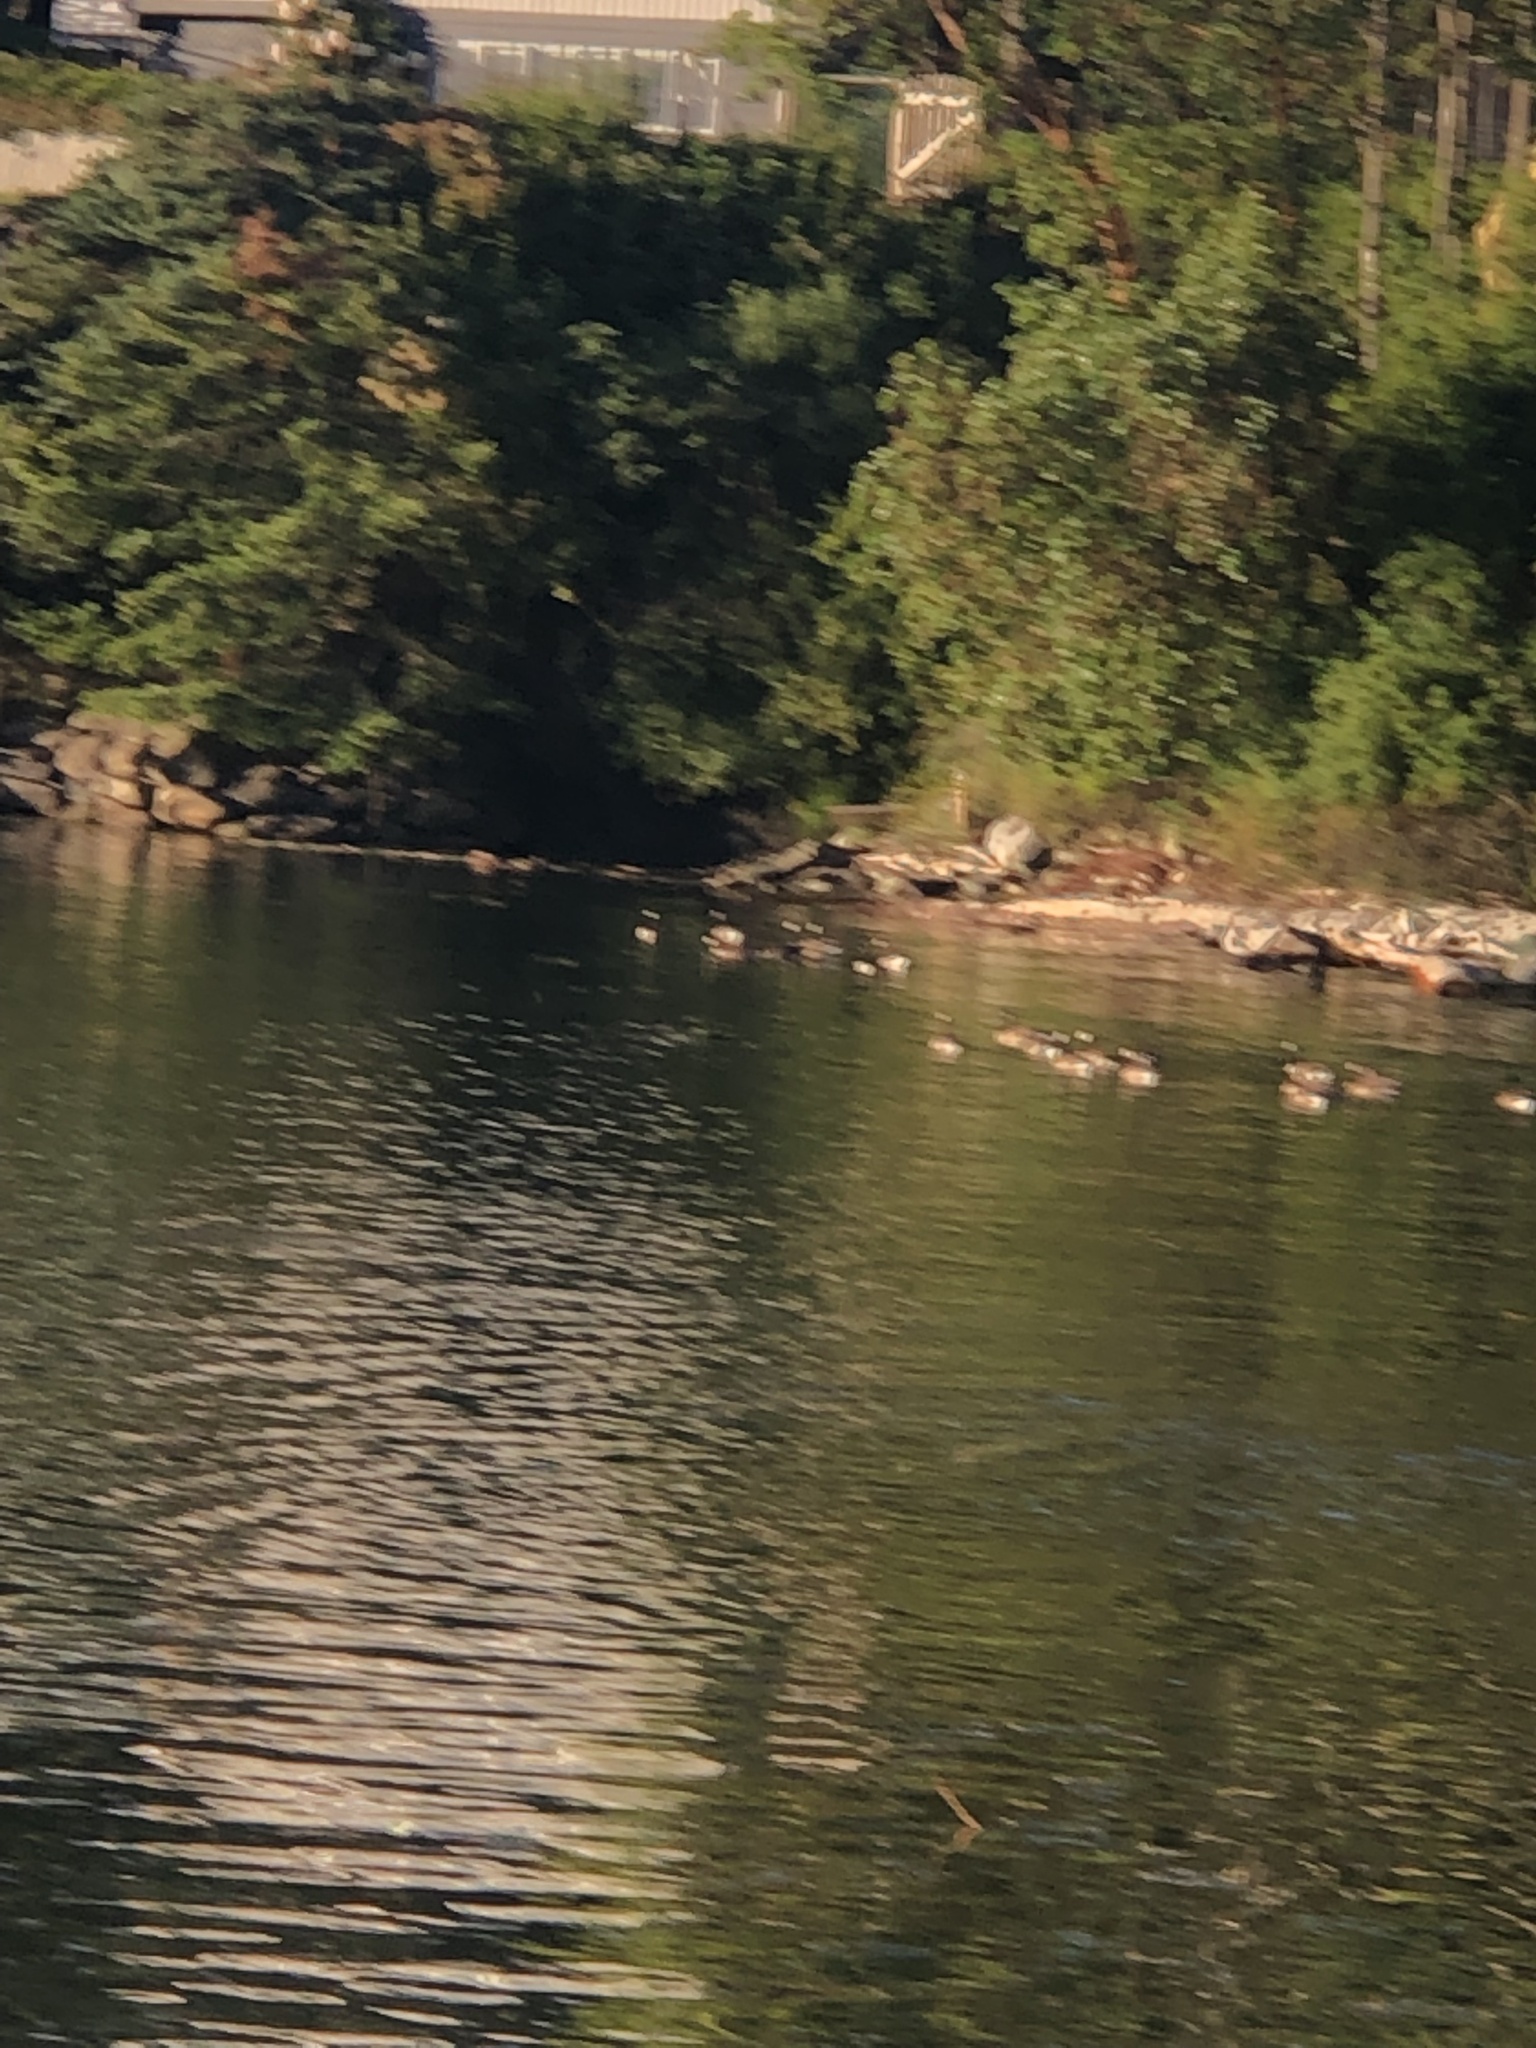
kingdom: Animalia
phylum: Chordata
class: Aves
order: Anseriformes
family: Anatidae
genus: Branta
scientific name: Branta canadensis
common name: Canada goose
